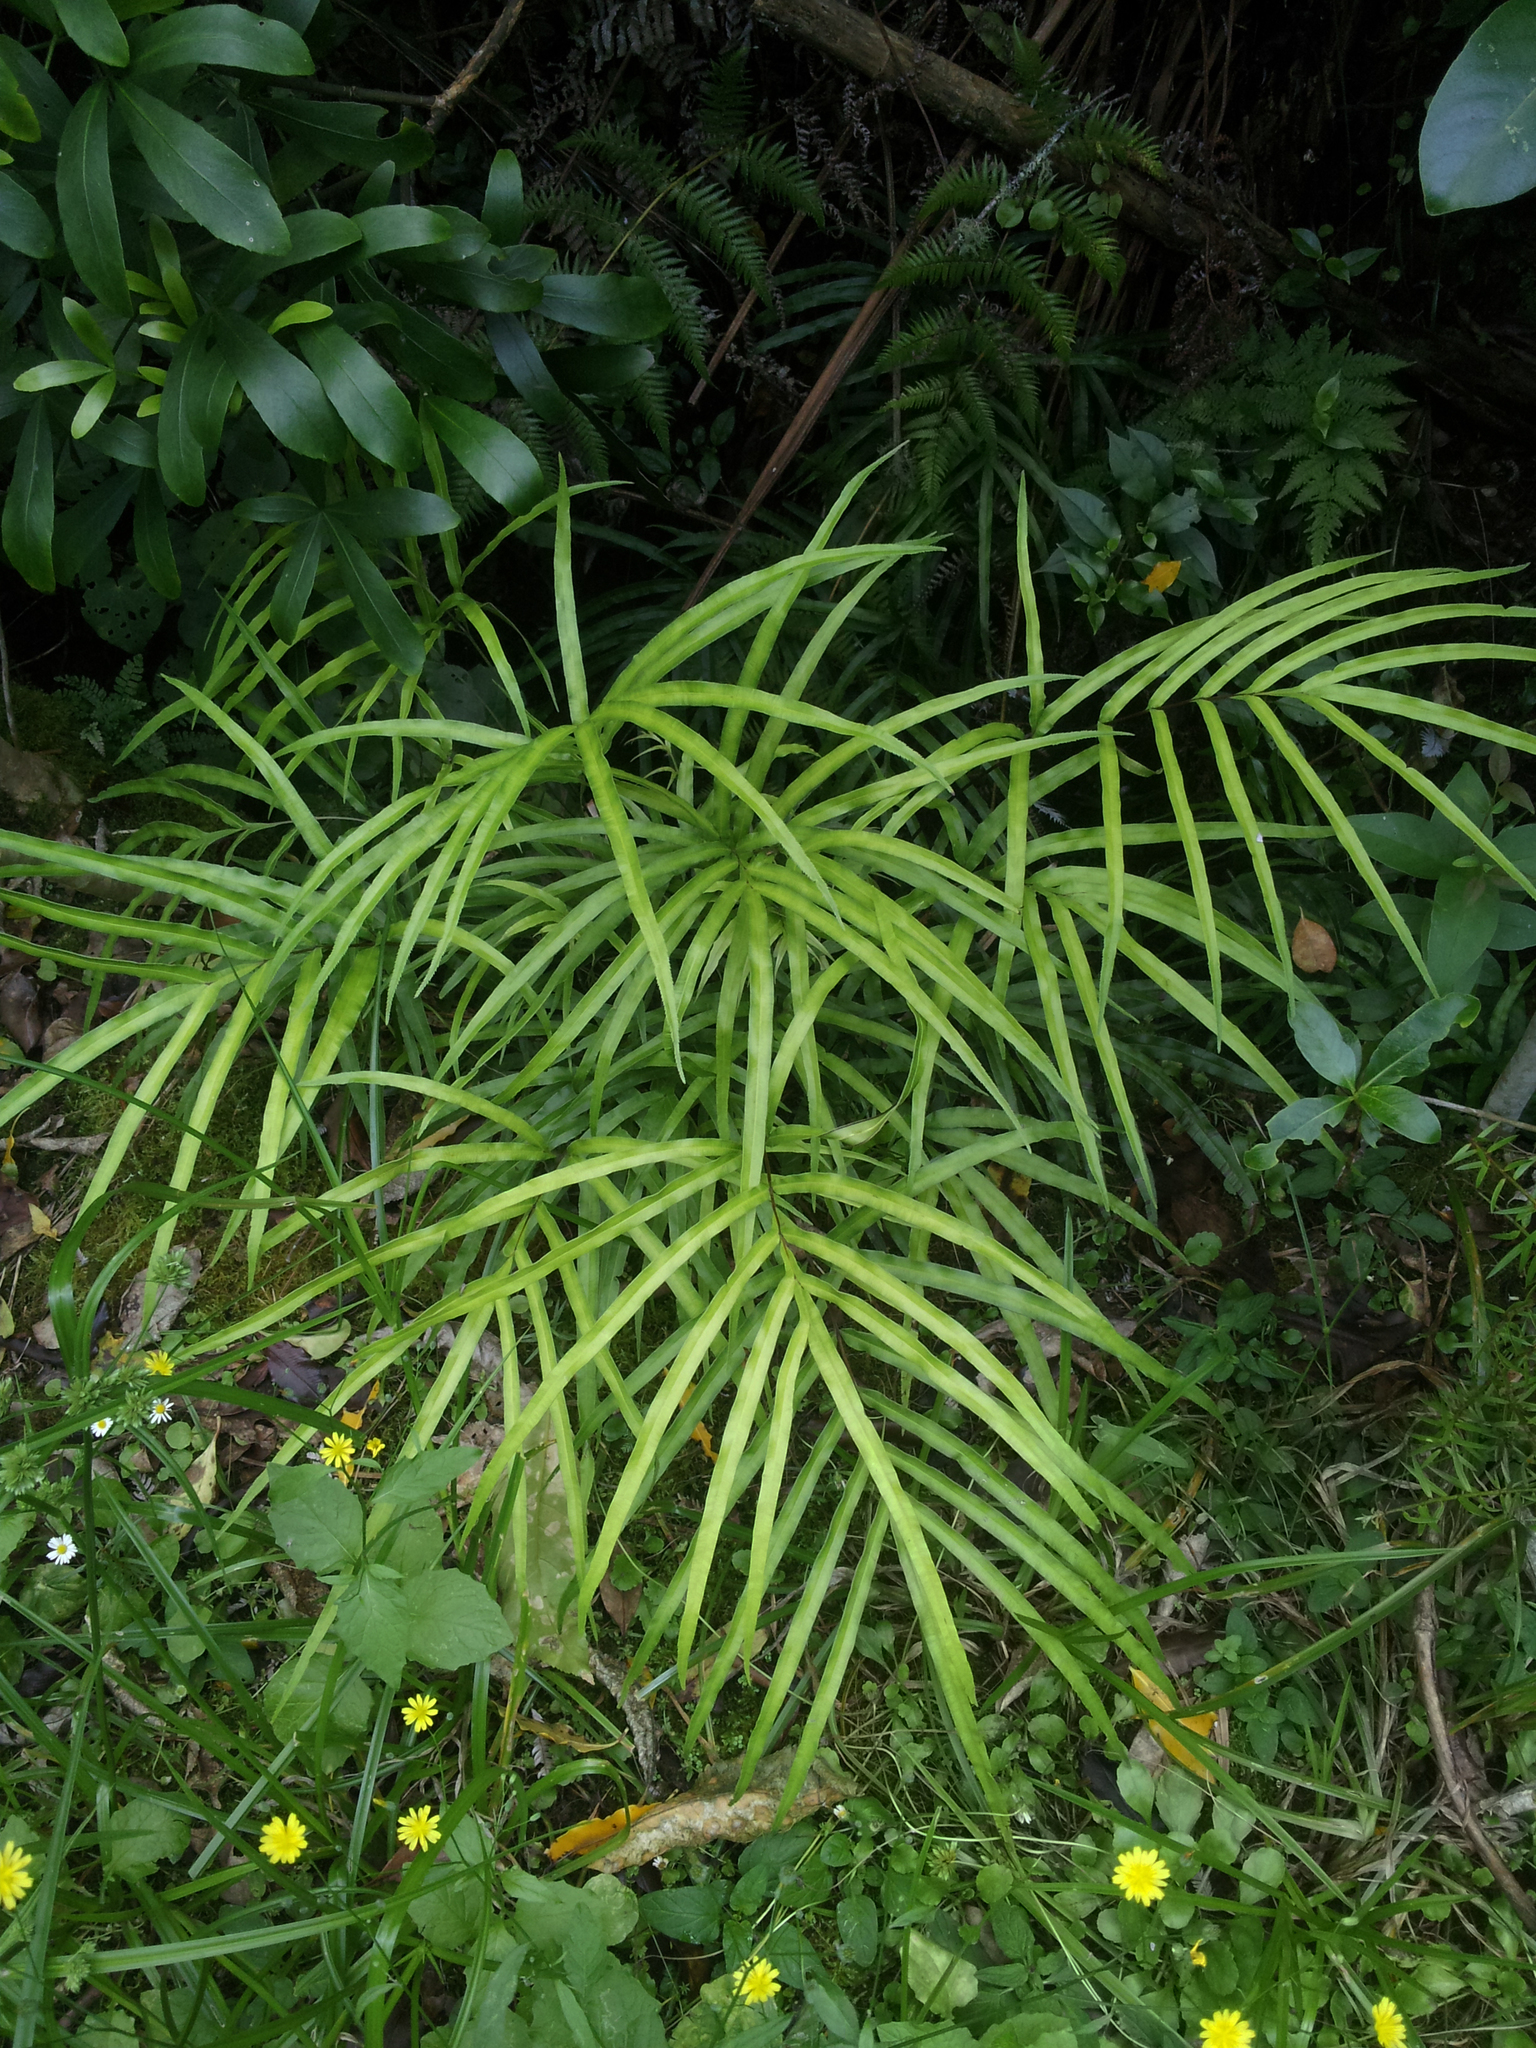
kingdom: Plantae
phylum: Tracheophyta
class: Polypodiopsida
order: Polypodiales
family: Pteridaceae
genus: Pteris
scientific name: Pteris cretica
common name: Ribbon fern
